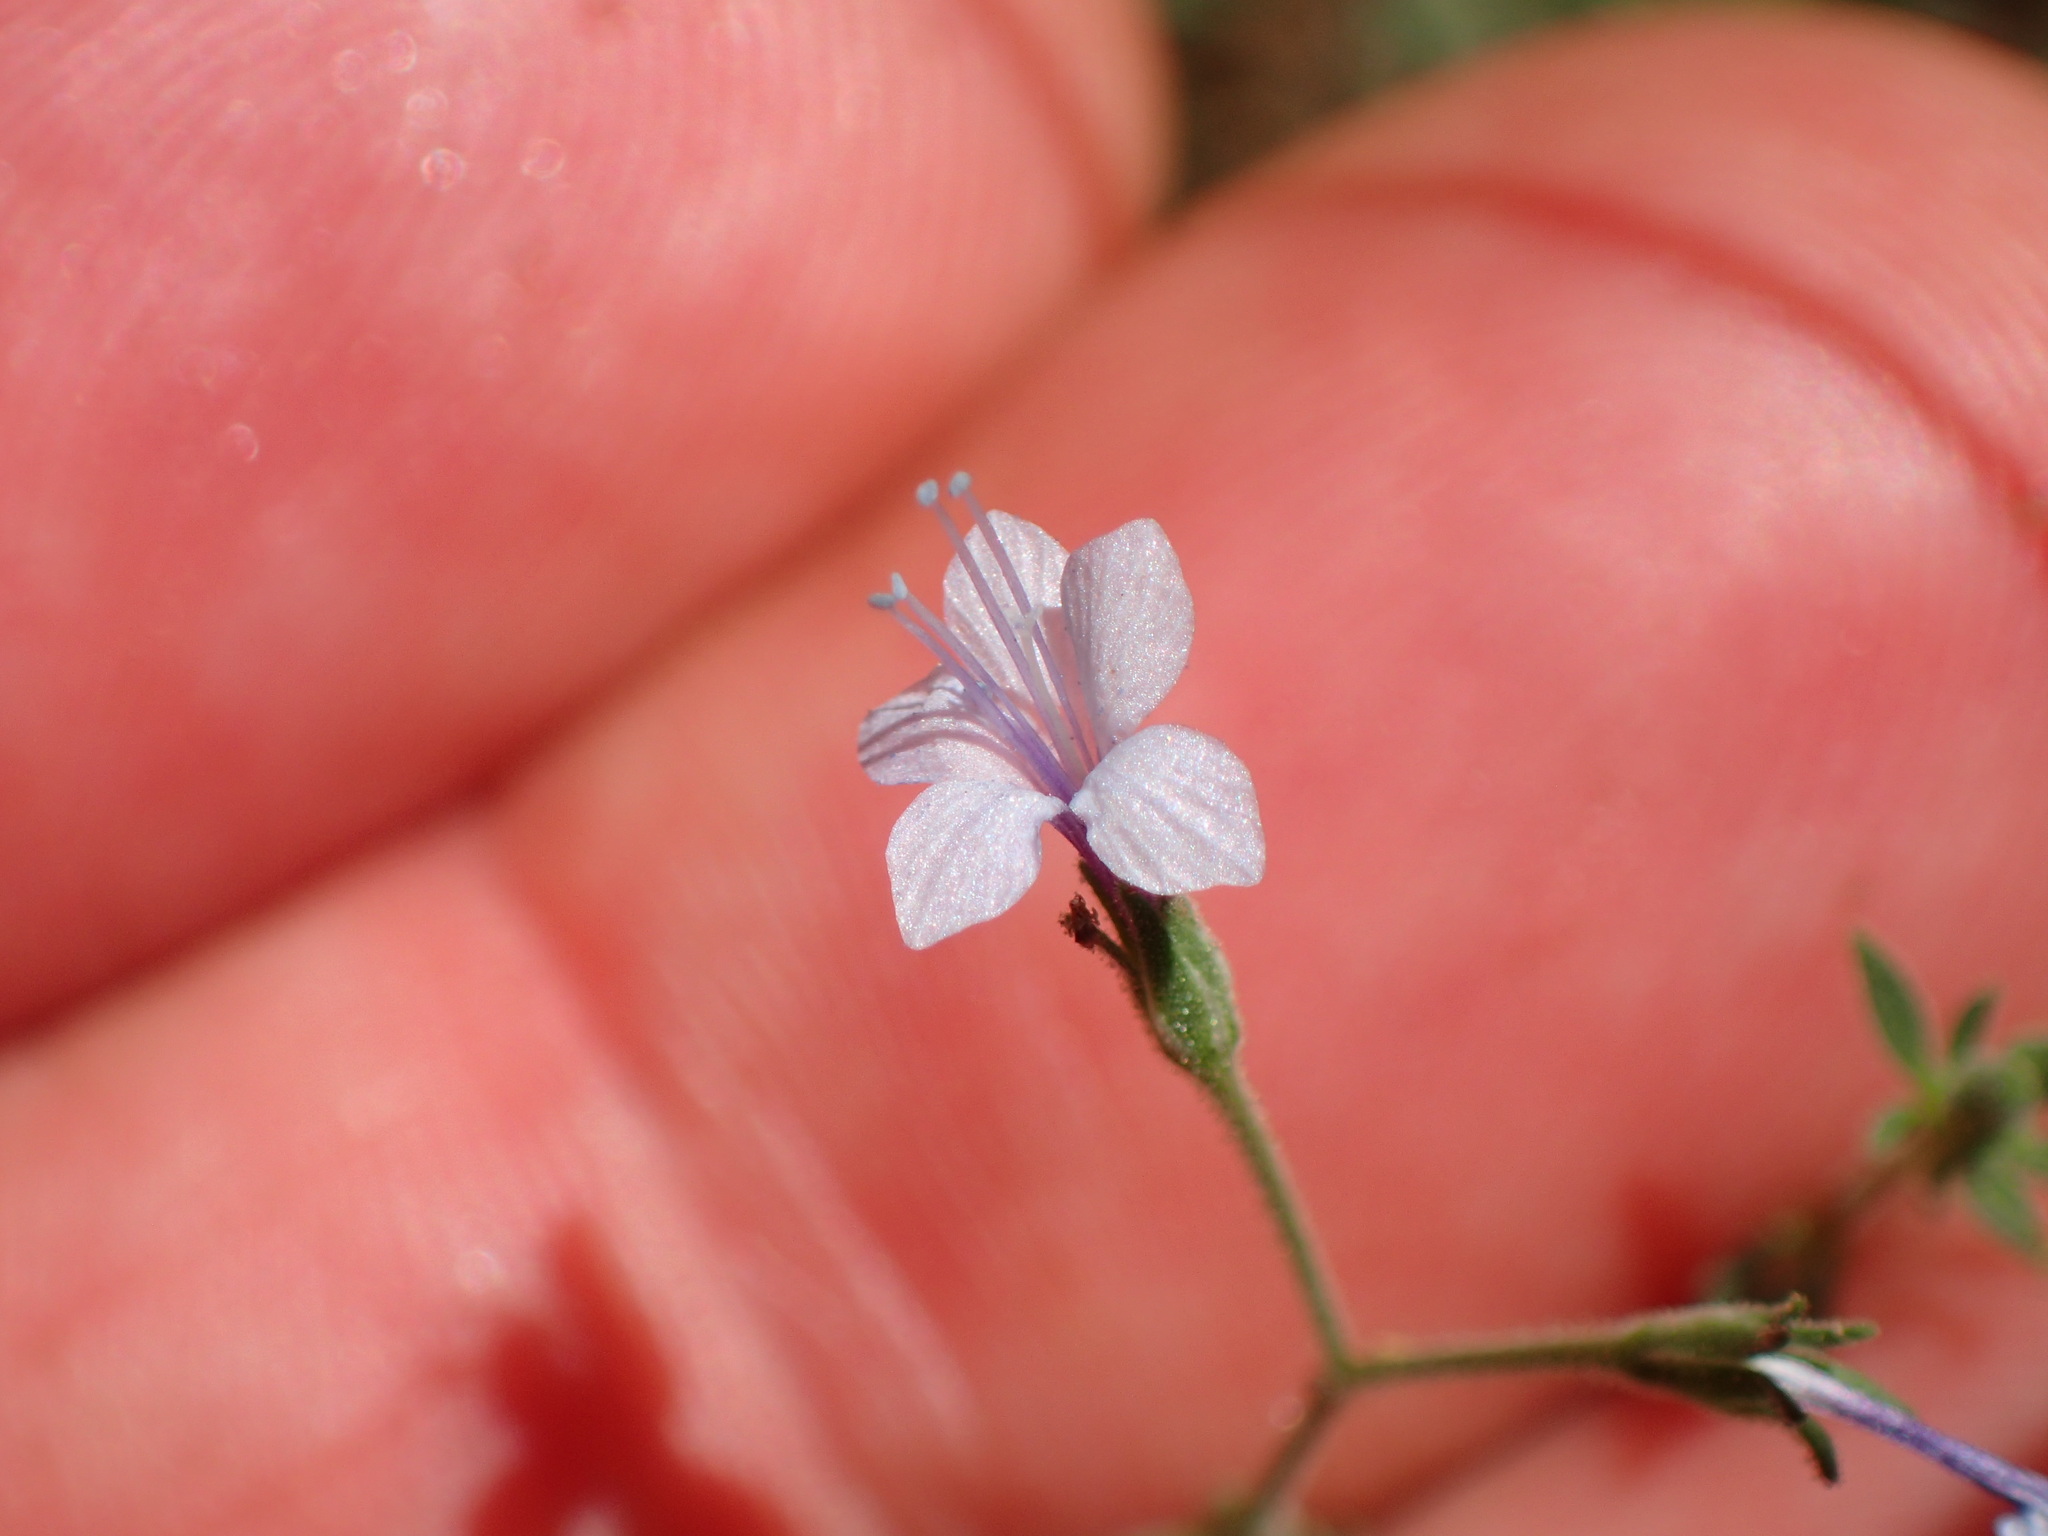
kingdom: Plantae
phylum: Tracheophyta
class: Magnoliopsida
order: Ericales
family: Polemoniaceae
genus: Allophyllum
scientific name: Allophyllum glutinosum
